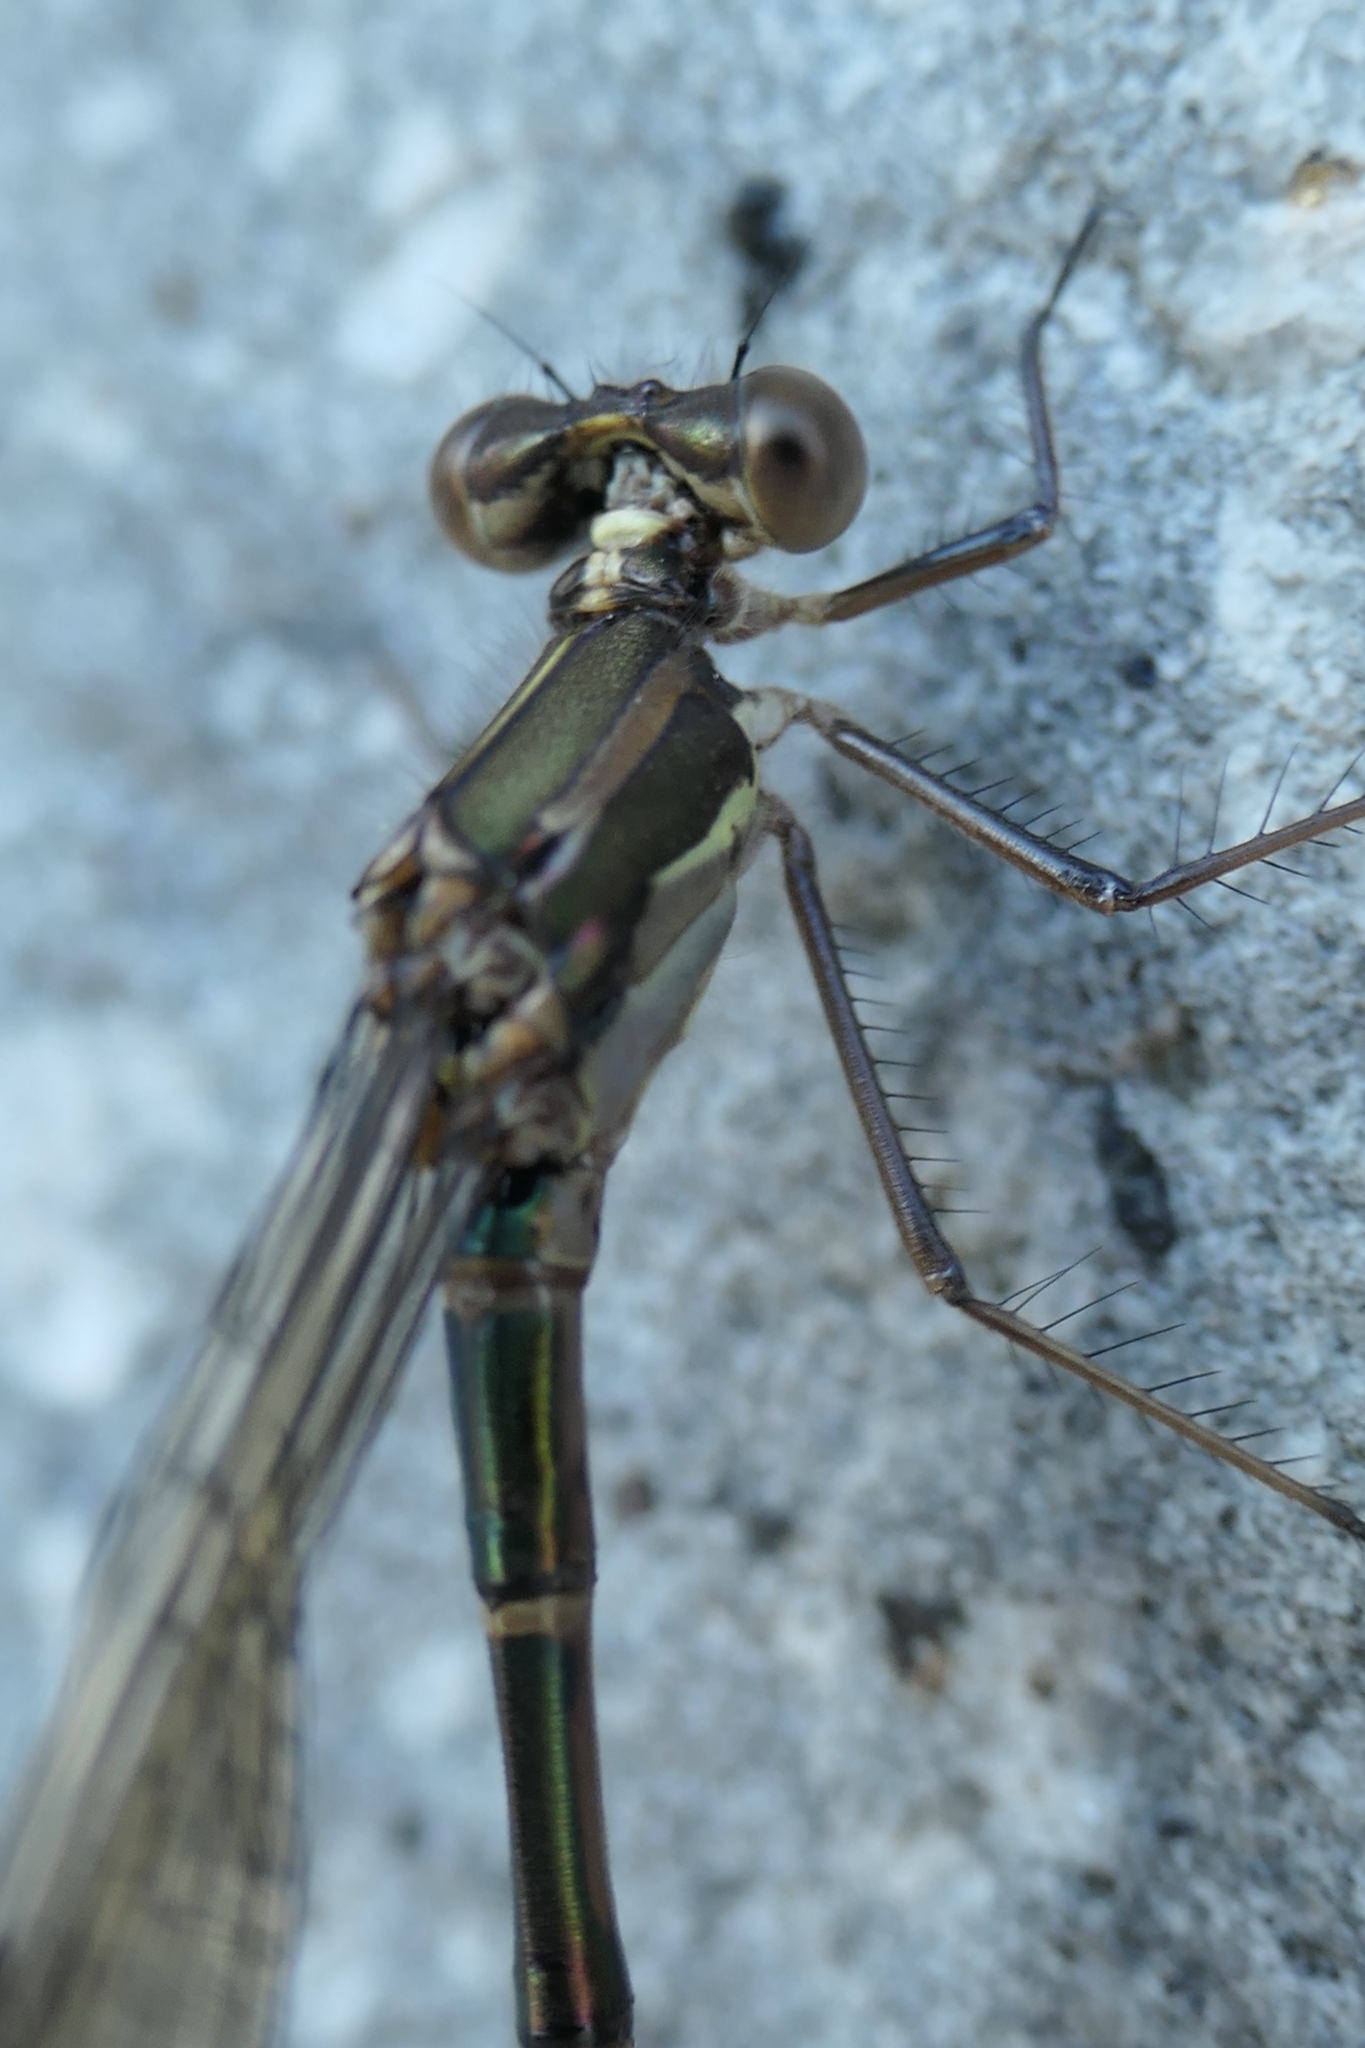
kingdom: Animalia
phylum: Arthropoda
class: Insecta
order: Odonata
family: Lestidae
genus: Austrolestes
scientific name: Austrolestes colensonis
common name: Blue damselfly
